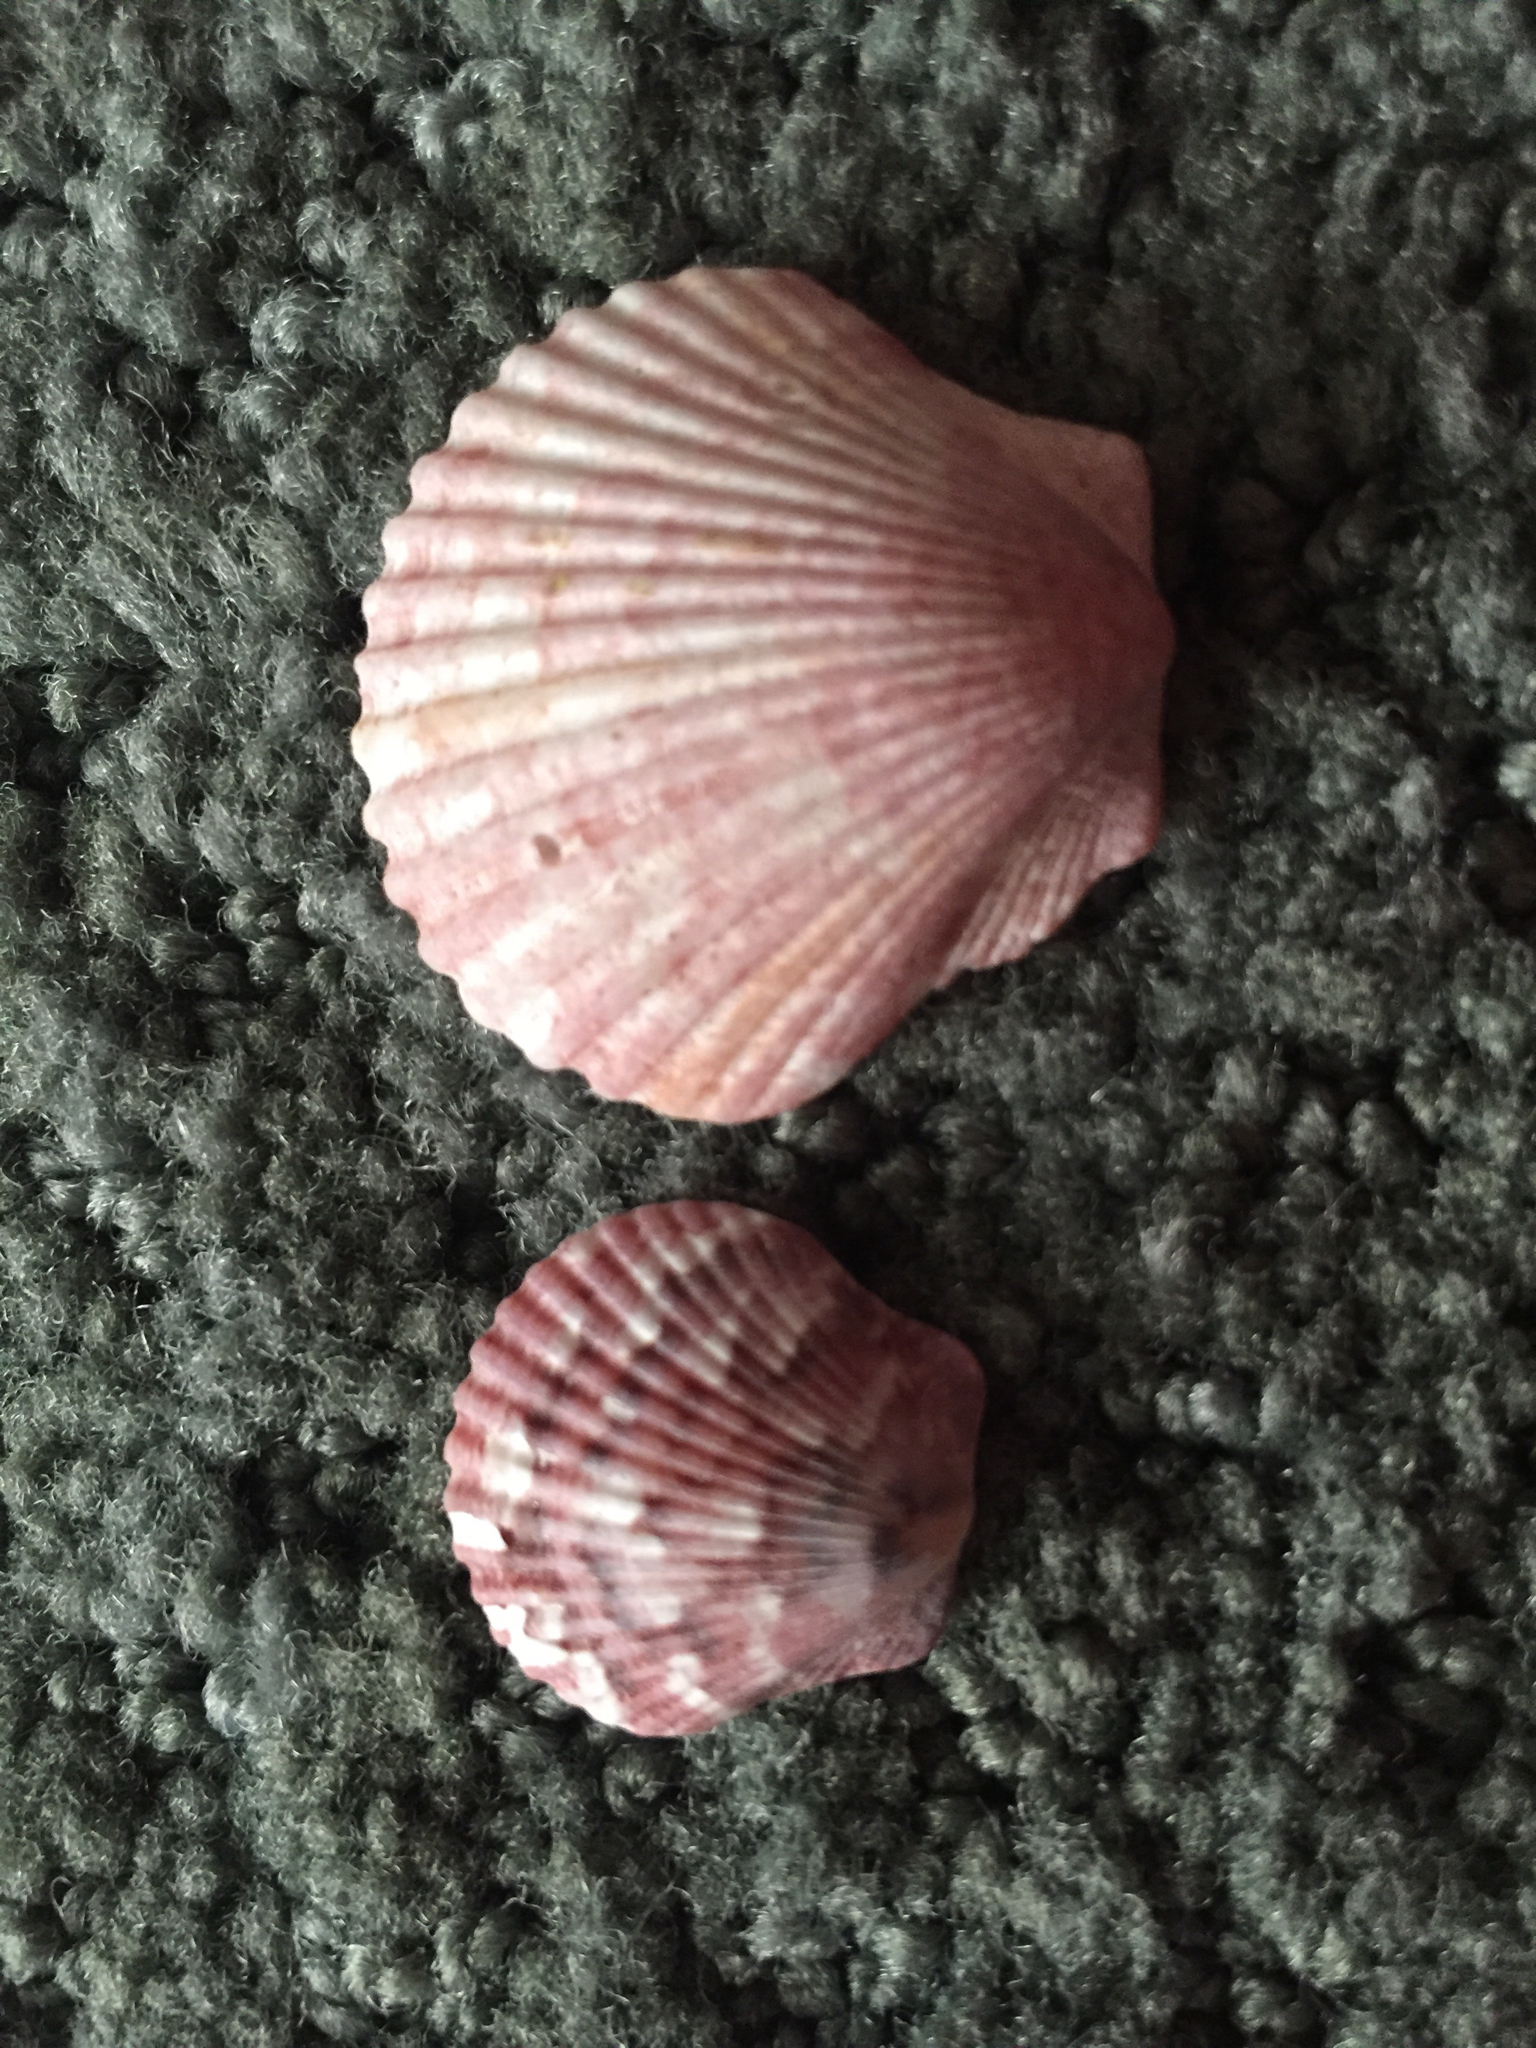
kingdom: Animalia
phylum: Mollusca
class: Bivalvia
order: Pectinida
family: Pectinidae
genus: Argopecten
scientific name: Argopecten gibbus
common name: Atlantic calico scallop
